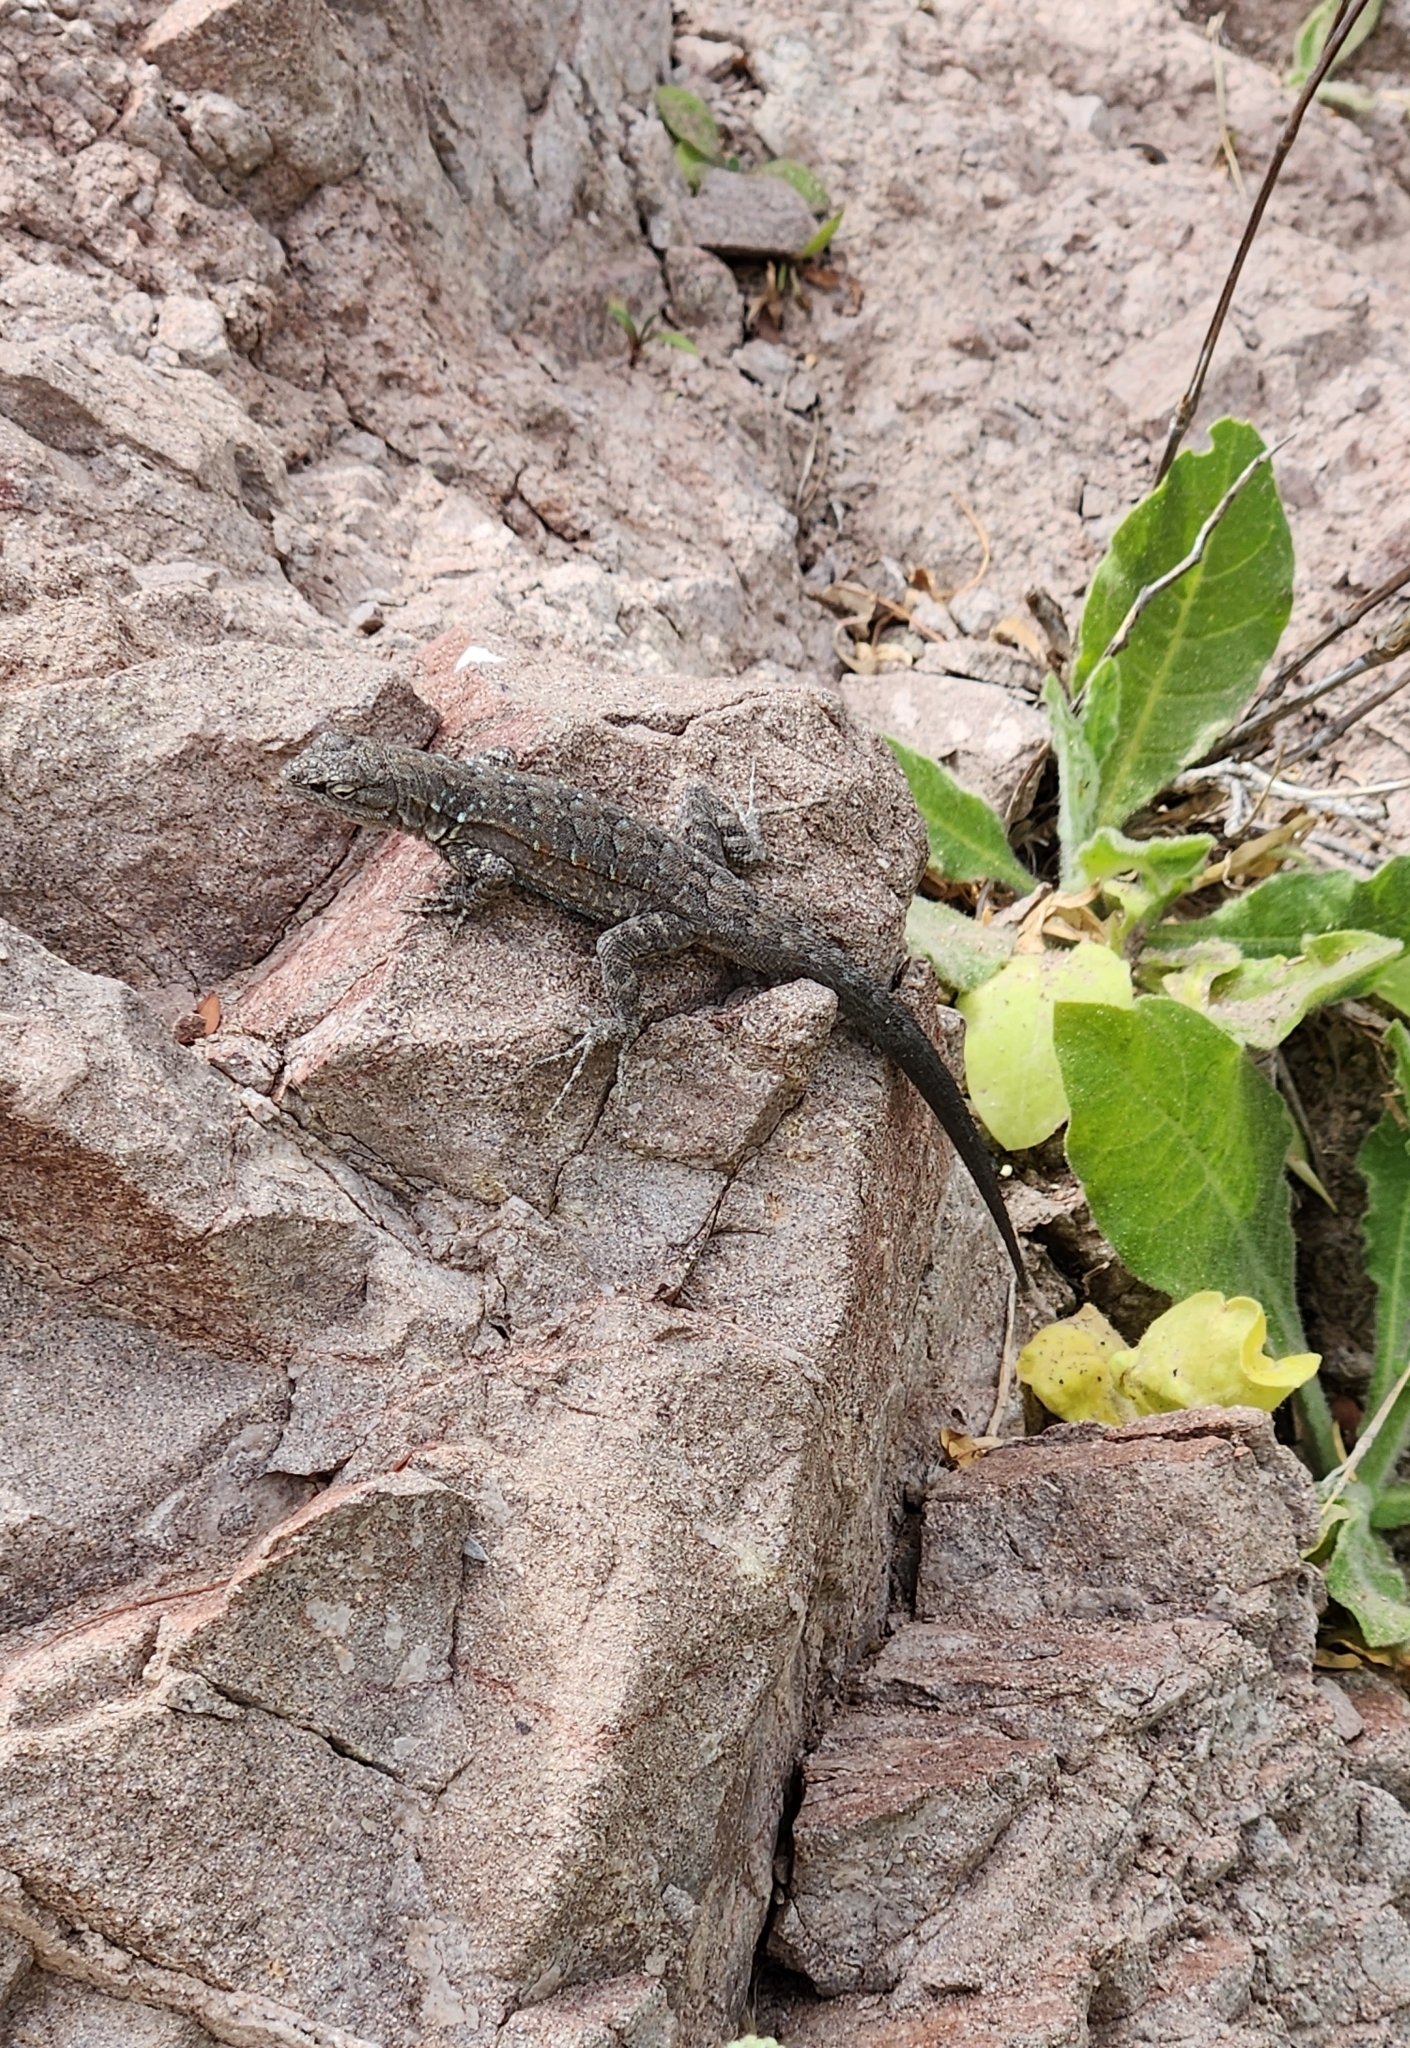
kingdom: Animalia
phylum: Chordata
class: Squamata
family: Phrynosomatidae
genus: Urosaurus
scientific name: Urosaurus nigricauda
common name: Baja california brush lizard
